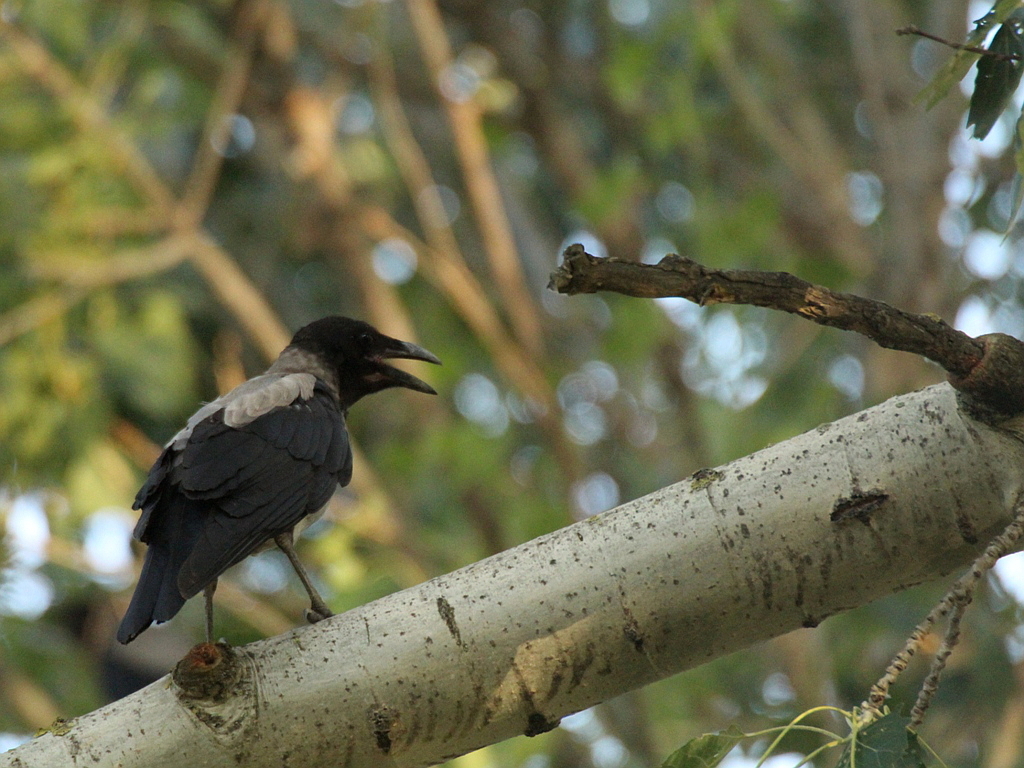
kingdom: Animalia
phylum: Chordata
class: Aves
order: Passeriformes
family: Corvidae
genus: Corvus
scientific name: Corvus cornix
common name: Hooded crow
